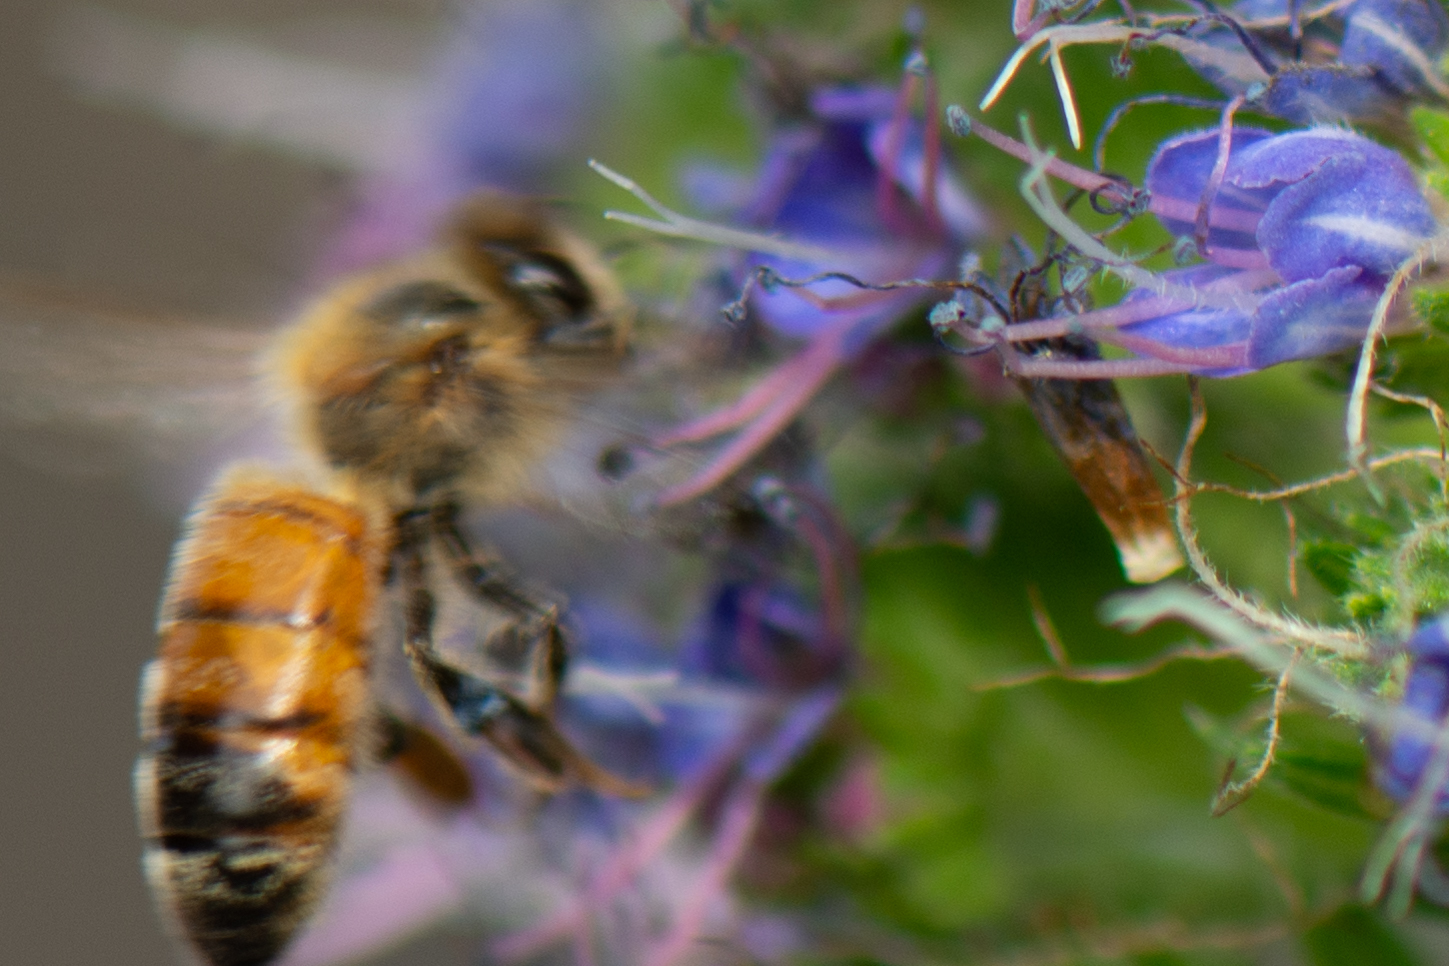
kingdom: Animalia
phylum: Arthropoda
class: Insecta
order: Hymenoptera
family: Apidae
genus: Apis
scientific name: Apis mellifera
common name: Honey bee
